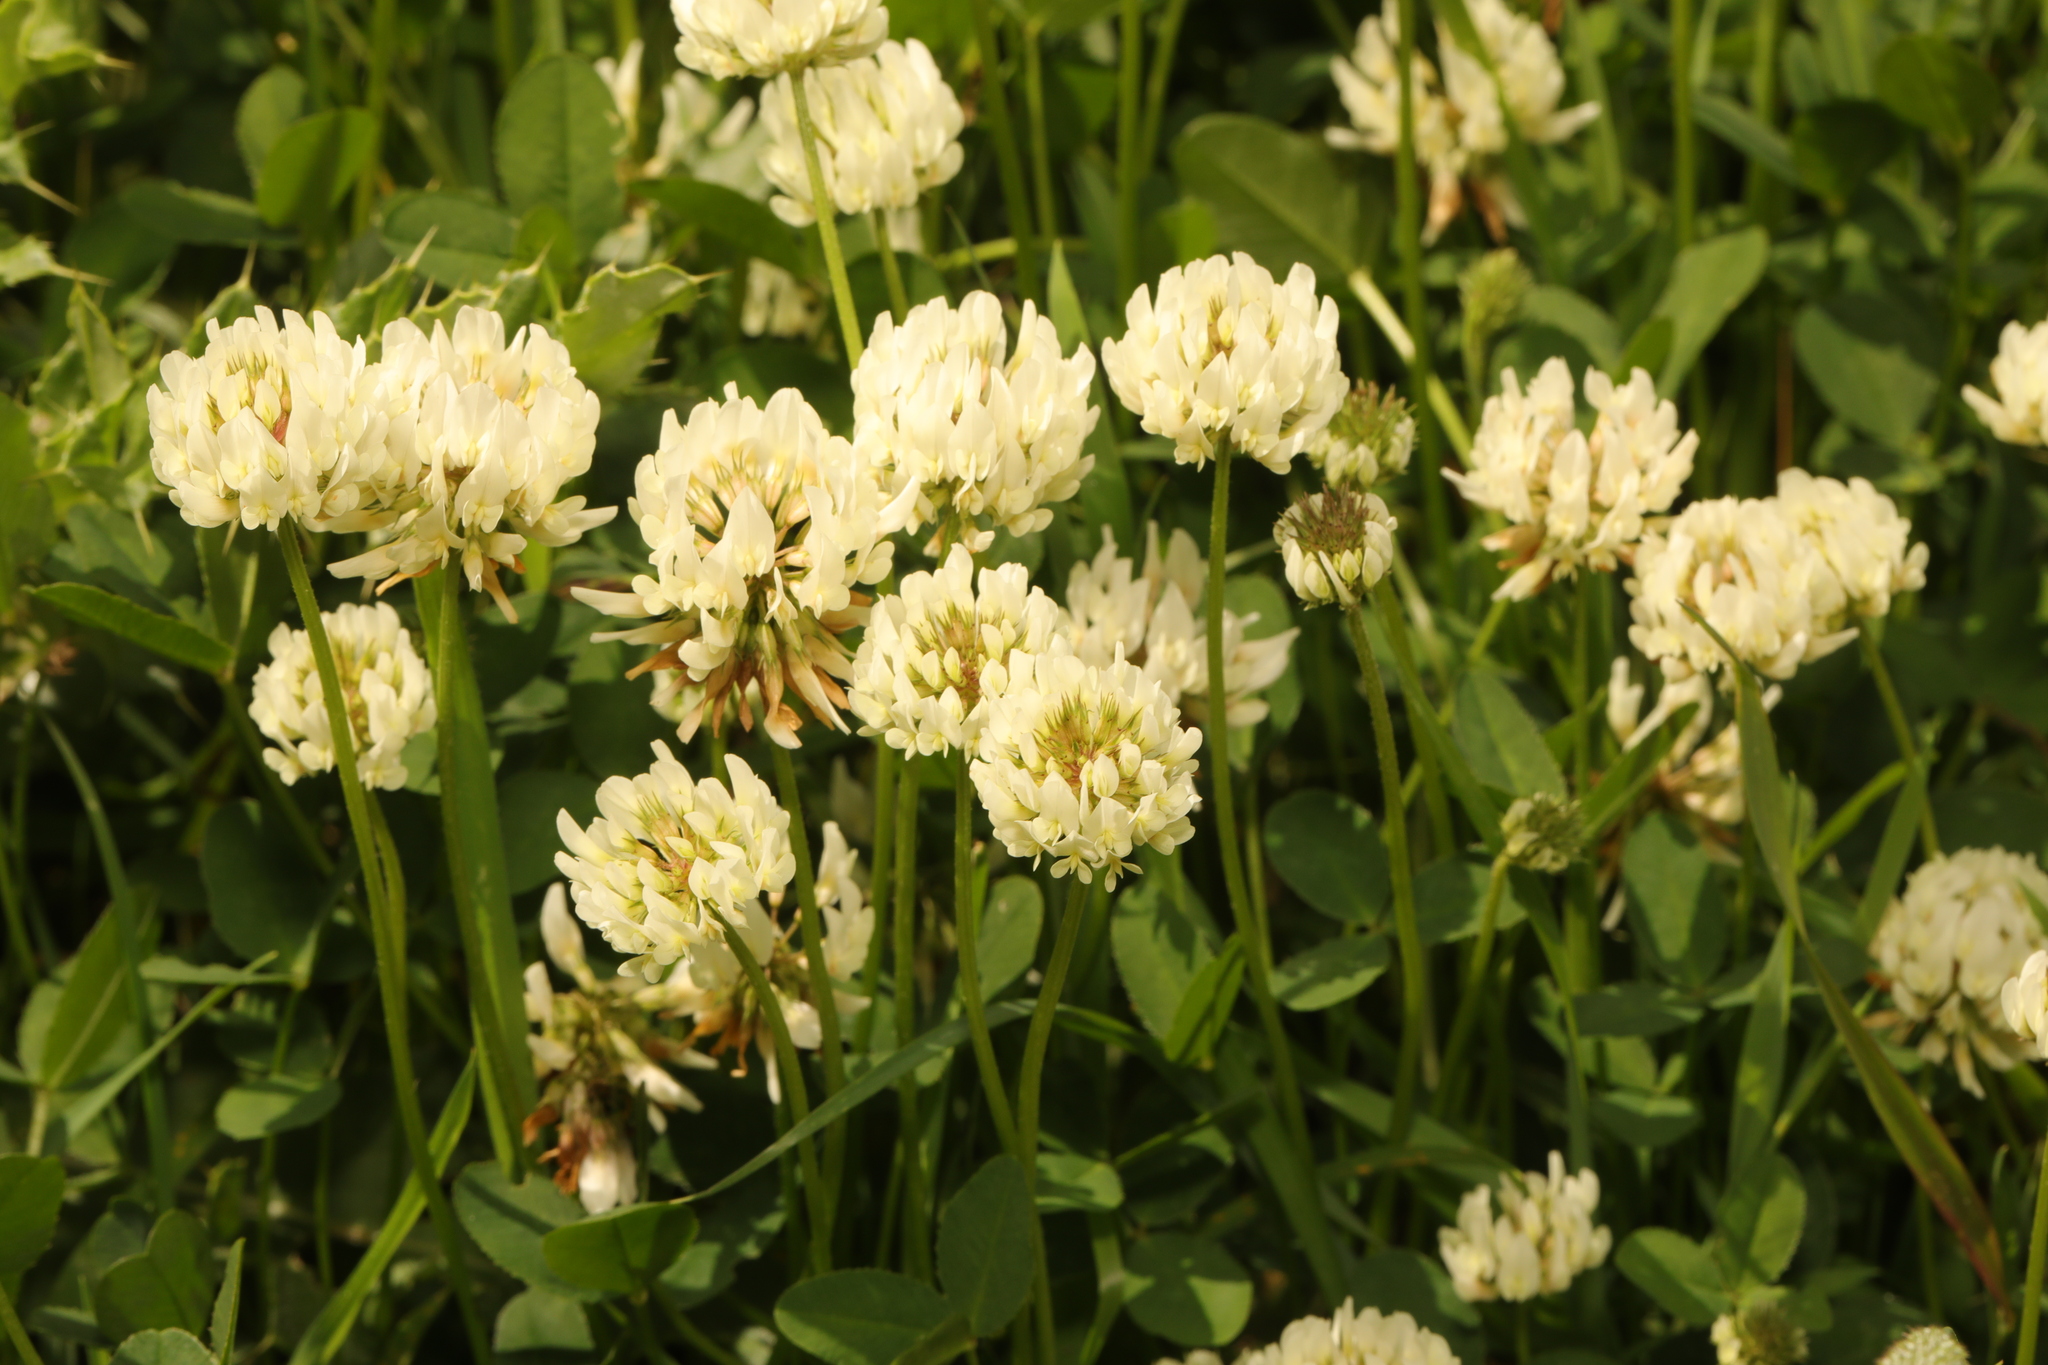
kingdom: Plantae
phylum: Tracheophyta
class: Magnoliopsida
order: Fabales
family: Fabaceae
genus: Trifolium
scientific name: Trifolium repens
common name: White clover
